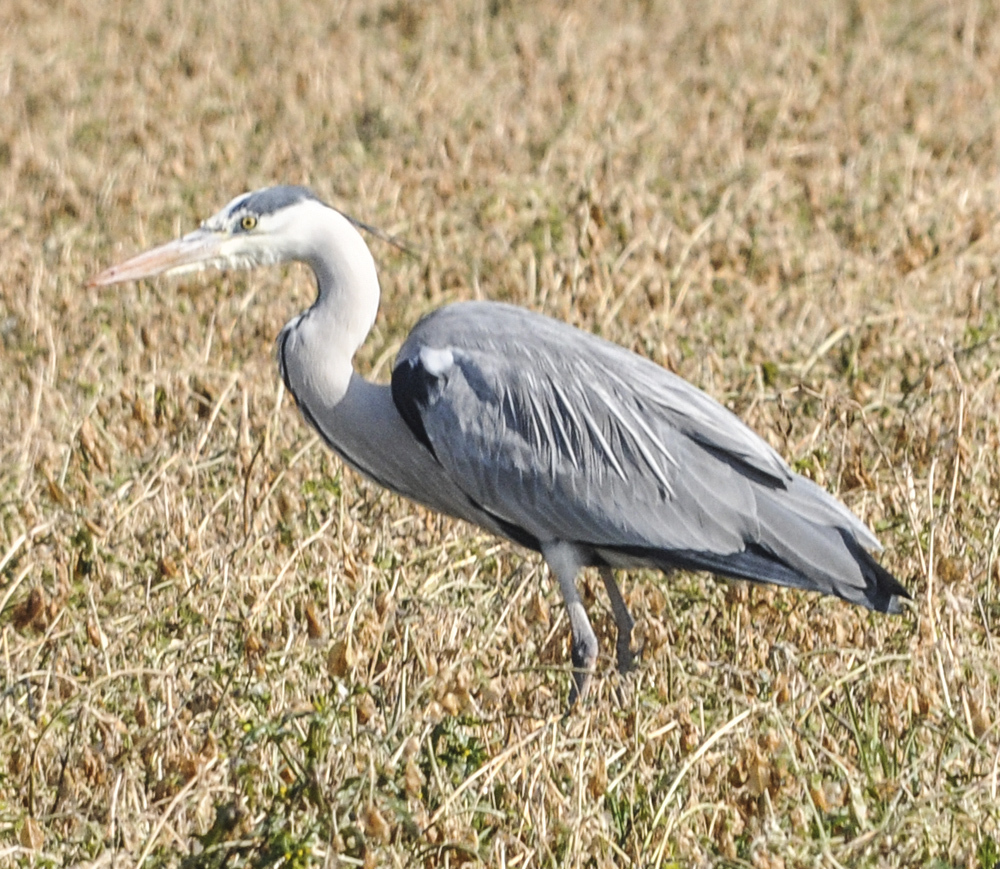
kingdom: Animalia
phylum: Chordata
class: Aves
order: Pelecaniformes
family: Ardeidae
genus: Ardea
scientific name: Ardea cinerea
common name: Grey heron
